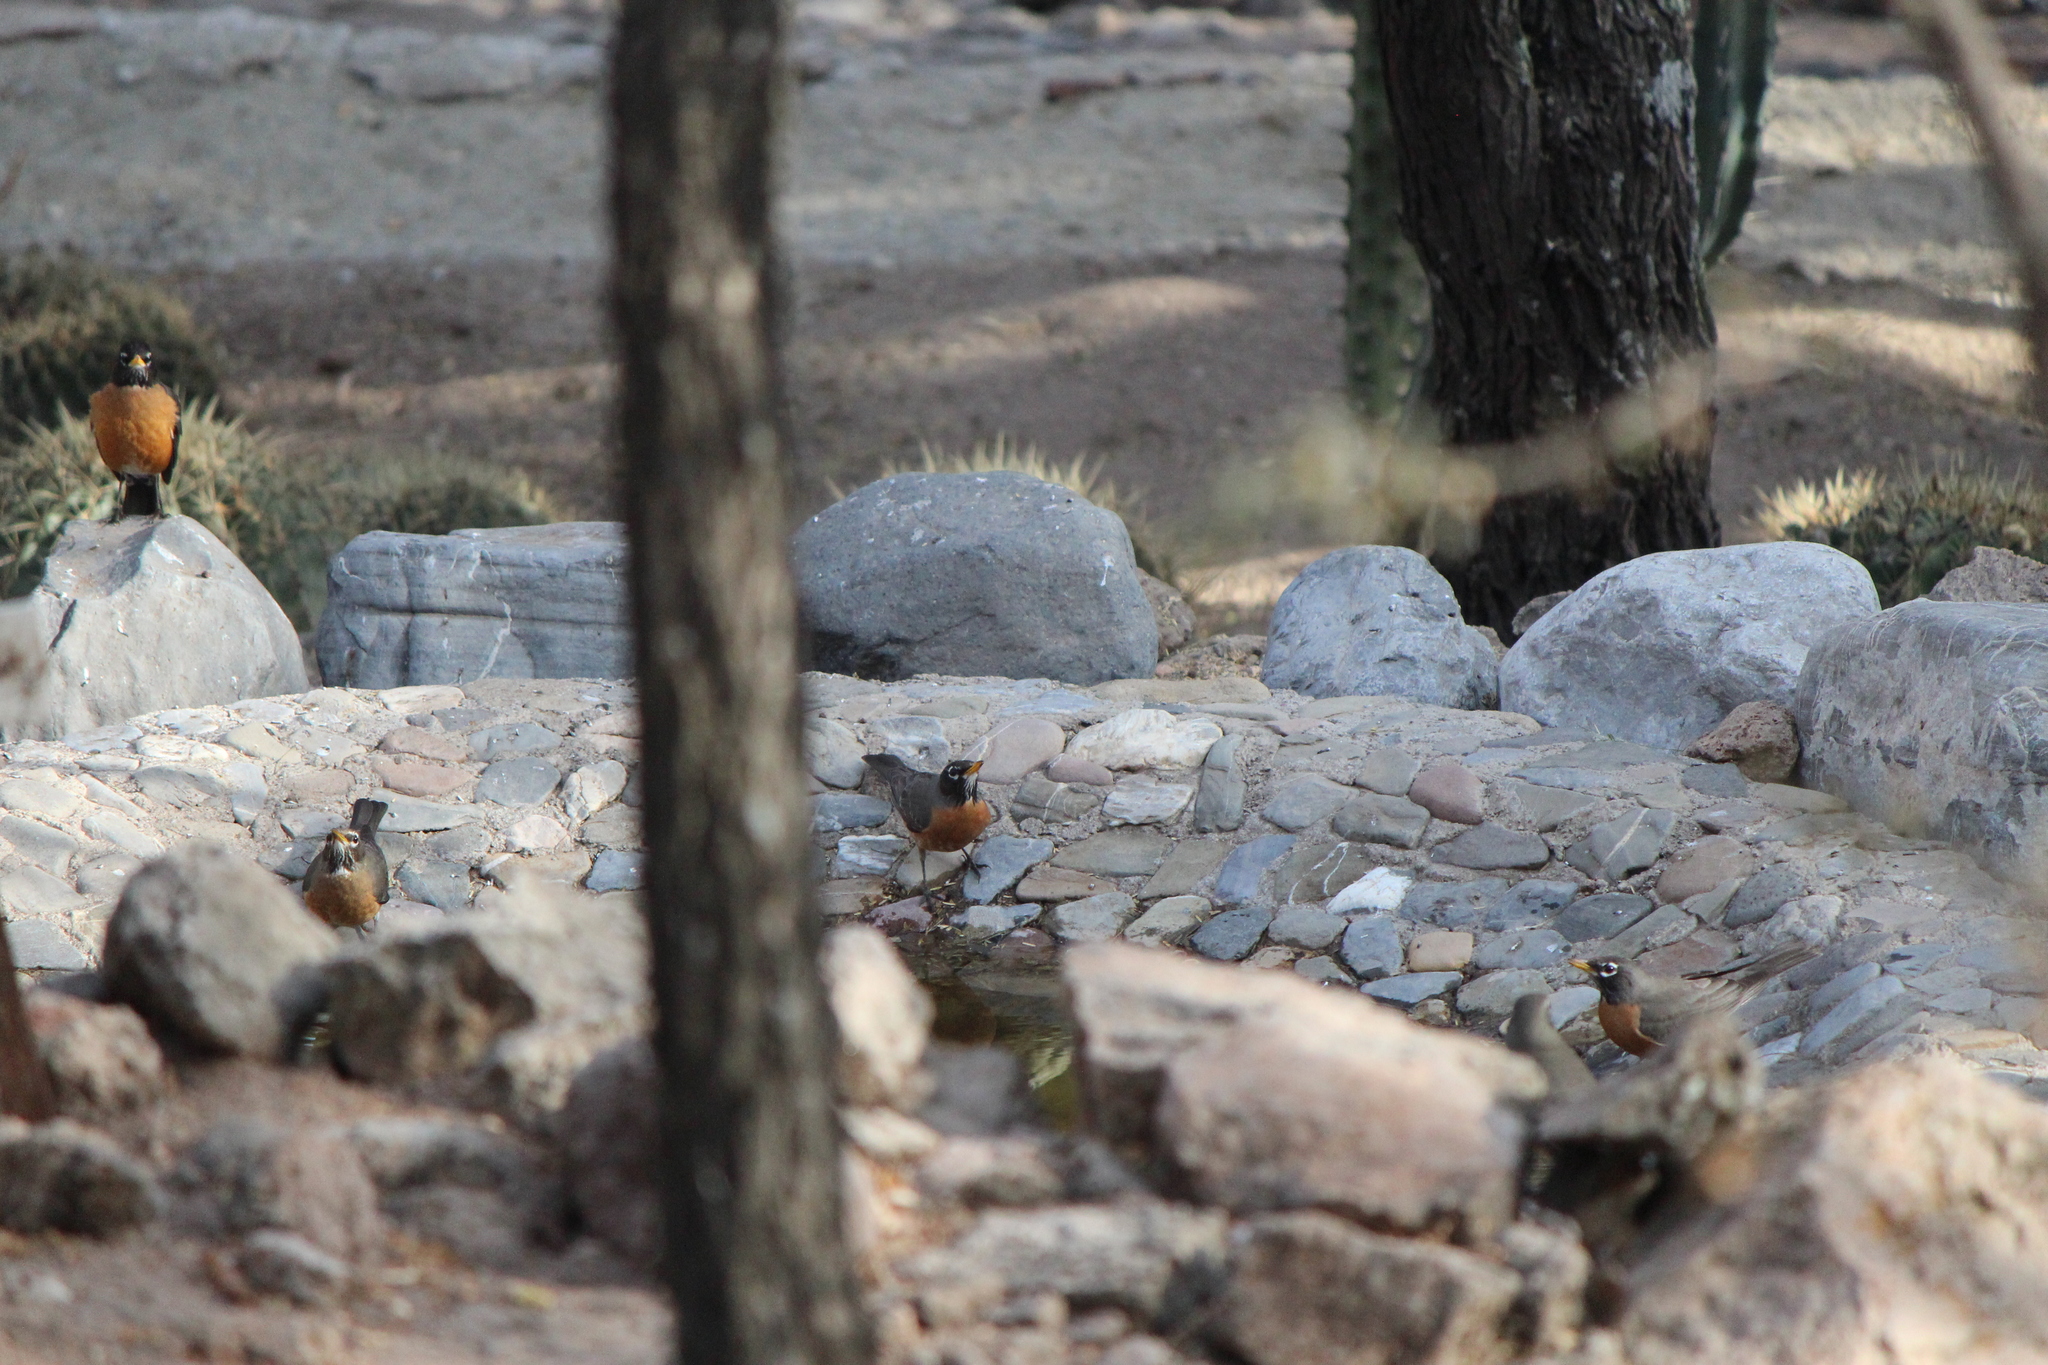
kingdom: Animalia
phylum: Chordata
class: Aves
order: Passeriformes
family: Turdidae
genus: Turdus
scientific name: Turdus migratorius
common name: American robin
